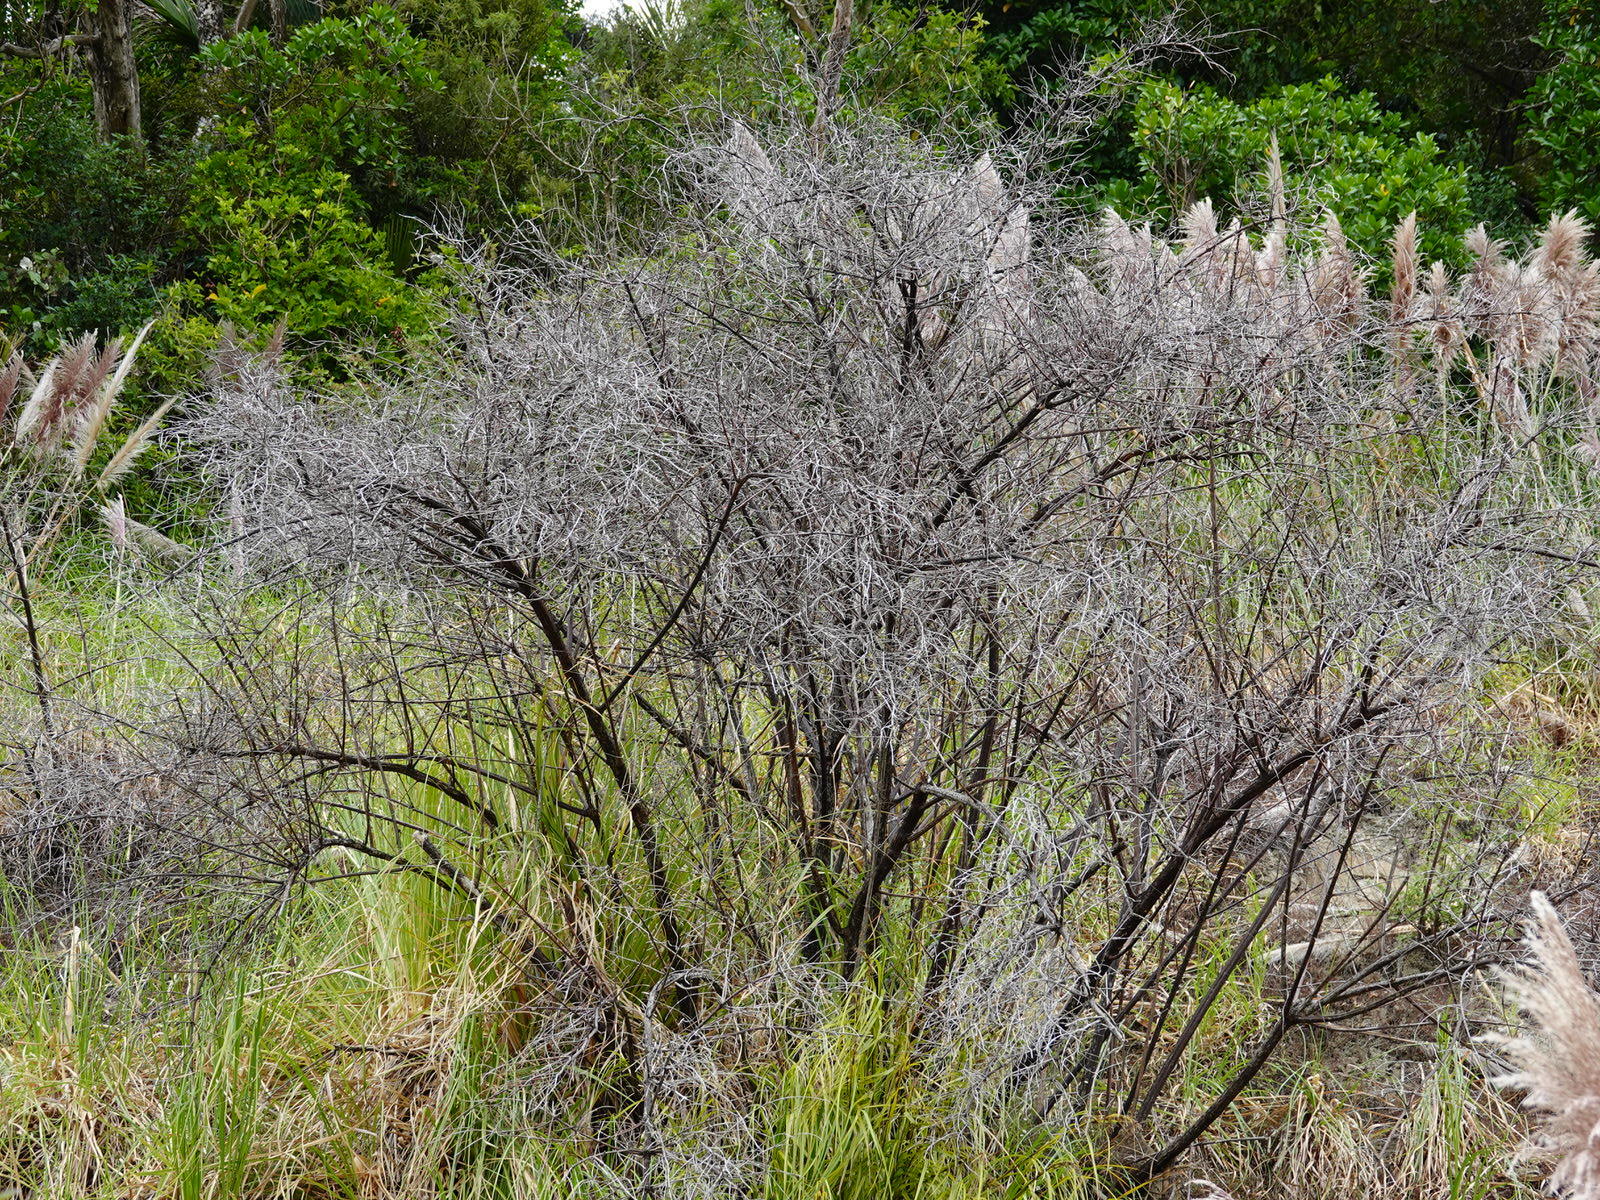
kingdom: Plantae
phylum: Tracheophyta
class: Magnoliopsida
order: Cucurbitales
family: Coriariaceae
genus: Coriaria
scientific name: Coriaria arborea
